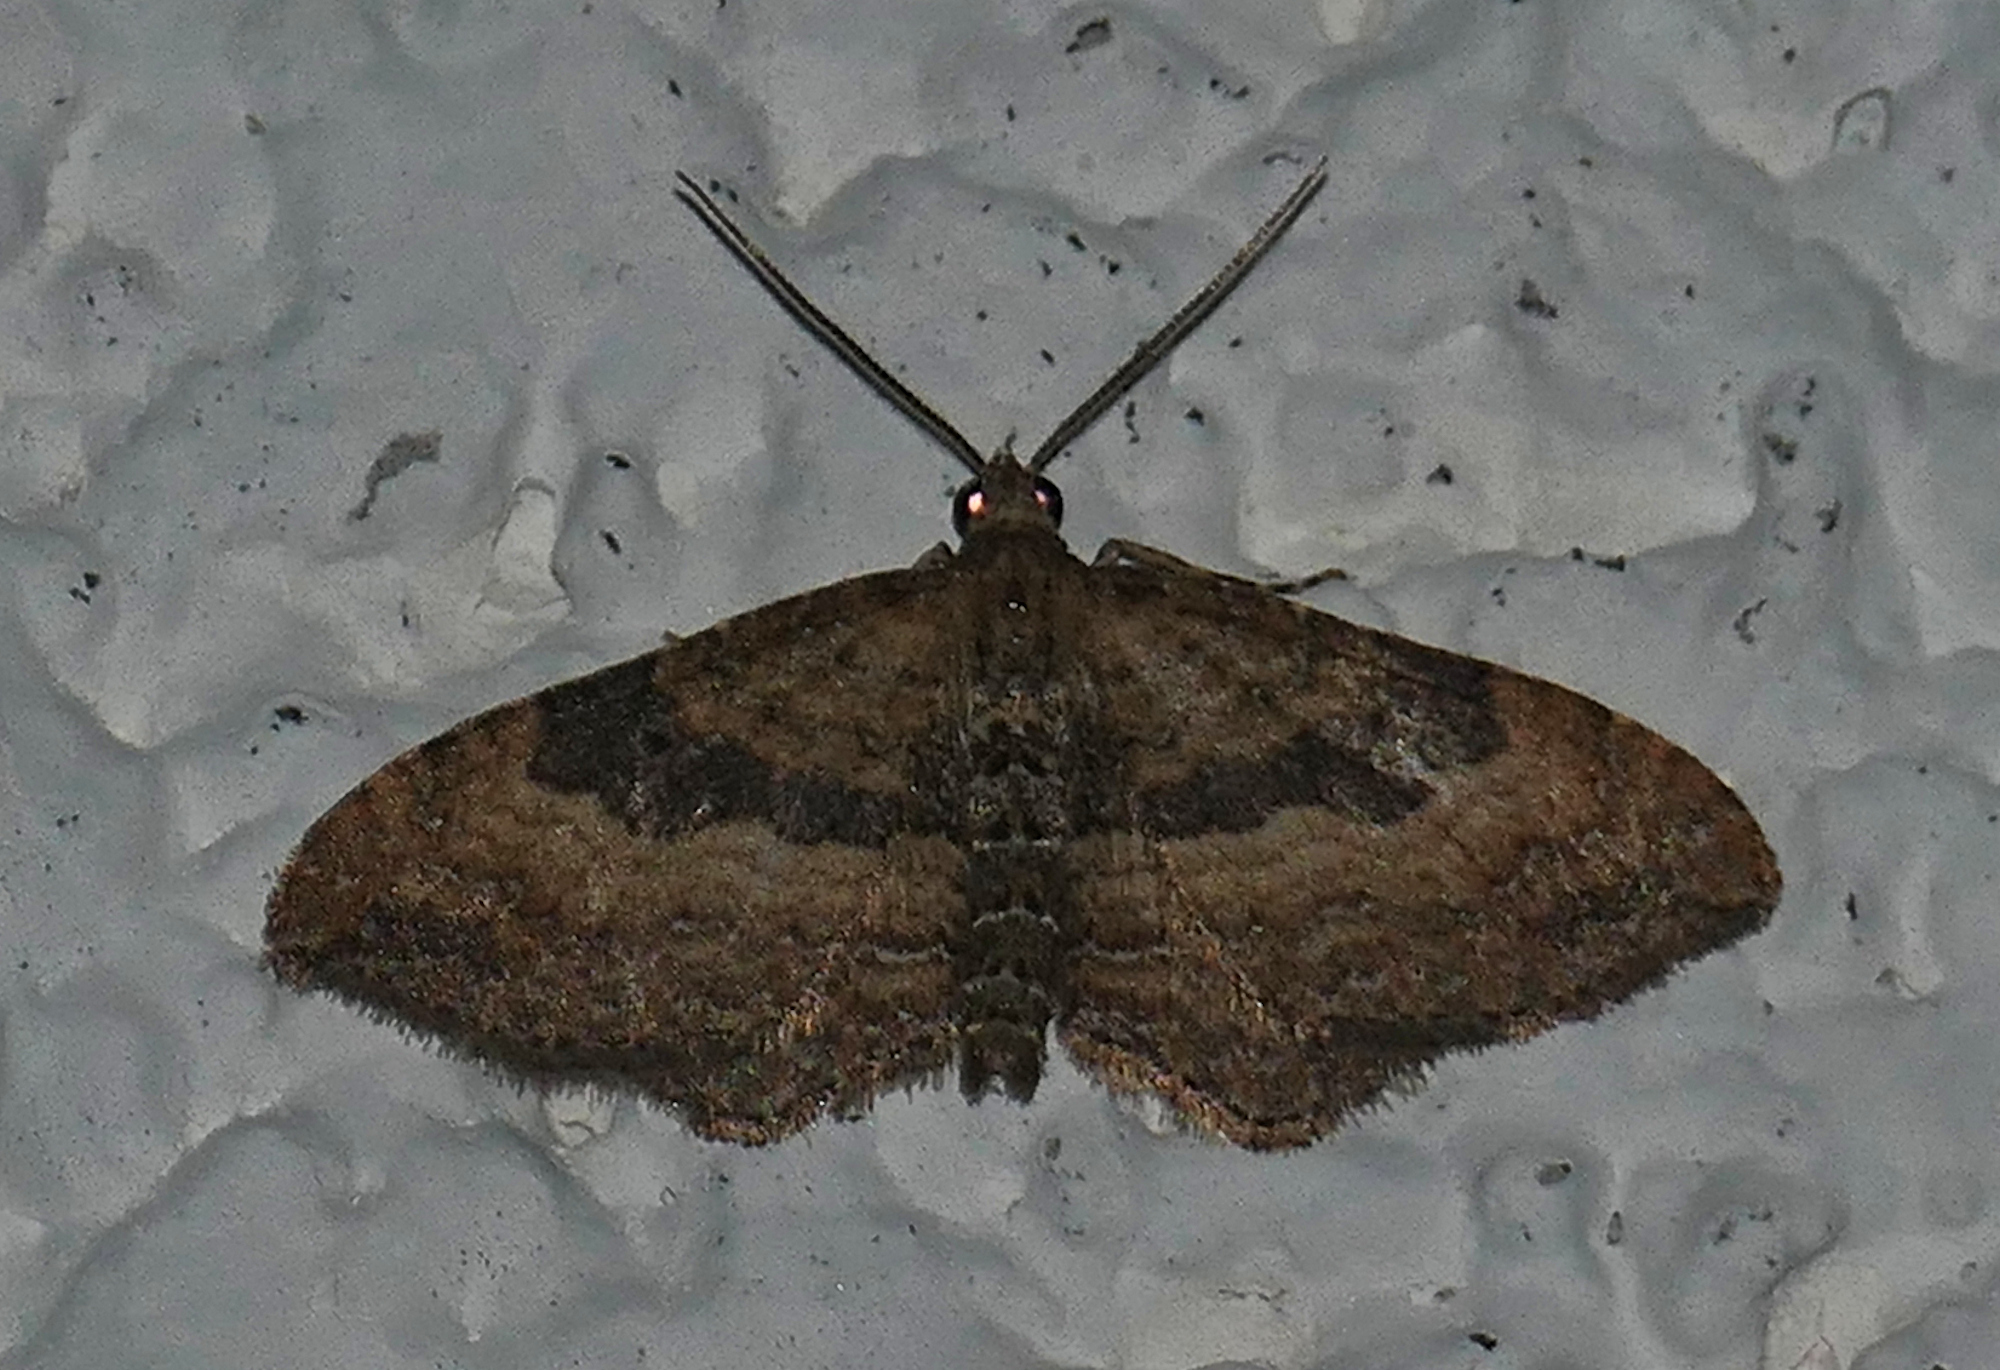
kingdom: Animalia
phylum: Arthropoda
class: Insecta
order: Lepidoptera
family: Geometridae
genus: Orthonama
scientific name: Orthonama obstipata
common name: The gem
